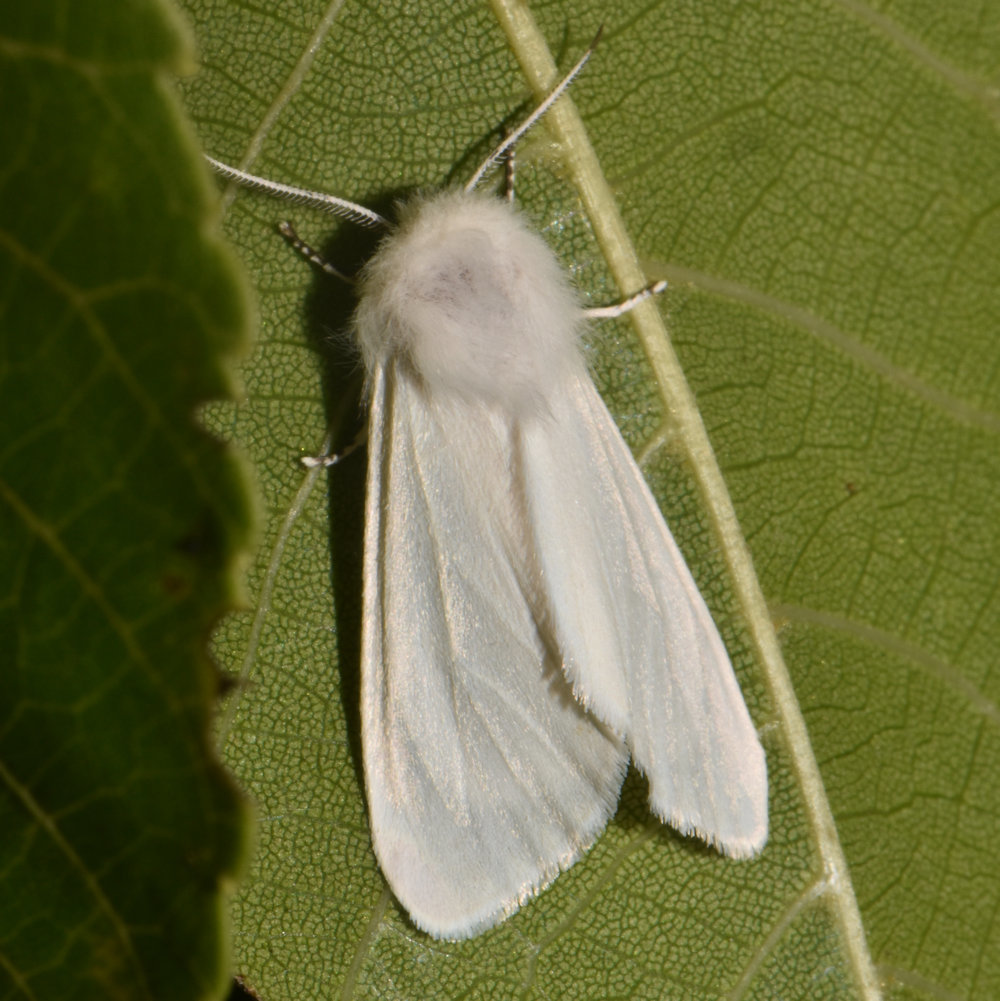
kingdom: Animalia
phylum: Arthropoda
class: Insecta
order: Lepidoptera
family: Erebidae
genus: Hyphantria
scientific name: Hyphantria cunea
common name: American white moth
